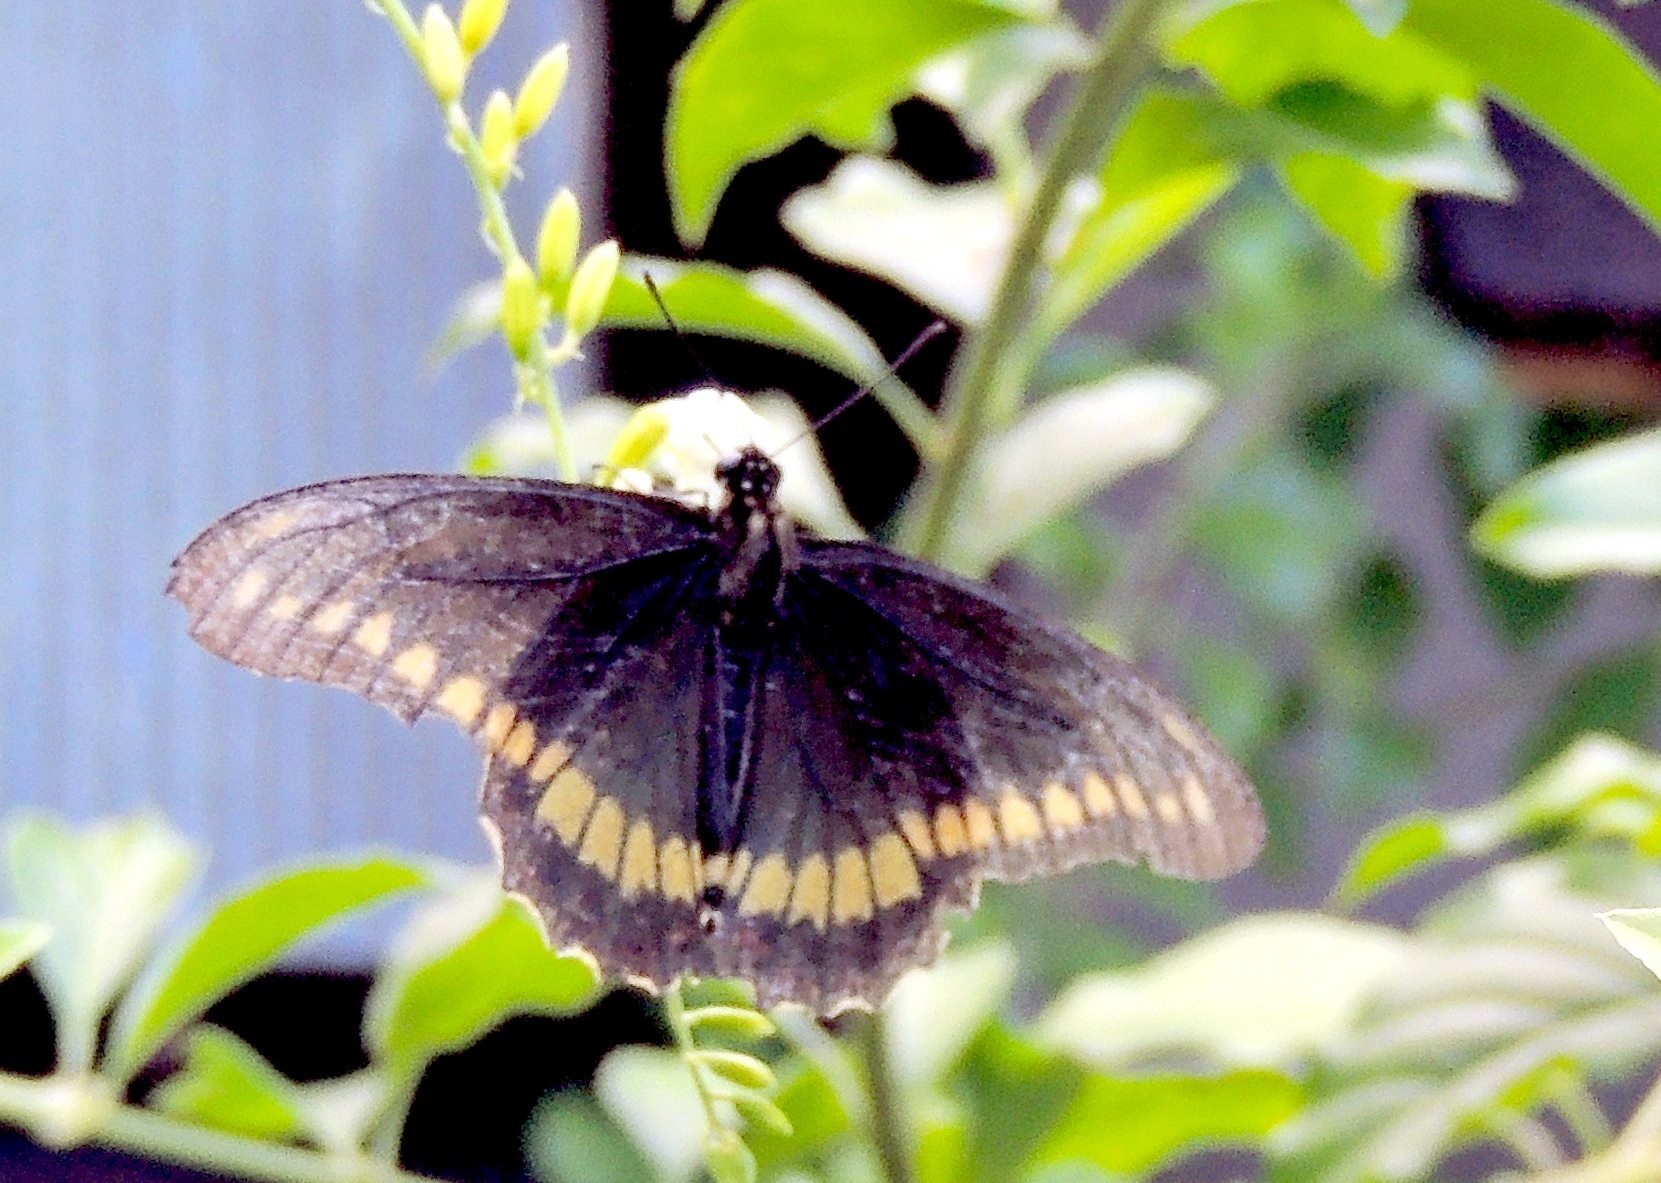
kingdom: Animalia
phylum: Arthropoda
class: Insecta
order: Lepidoptera
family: Papilionidae
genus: Battus
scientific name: Battus polydamas
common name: Polydamas swallowtail
